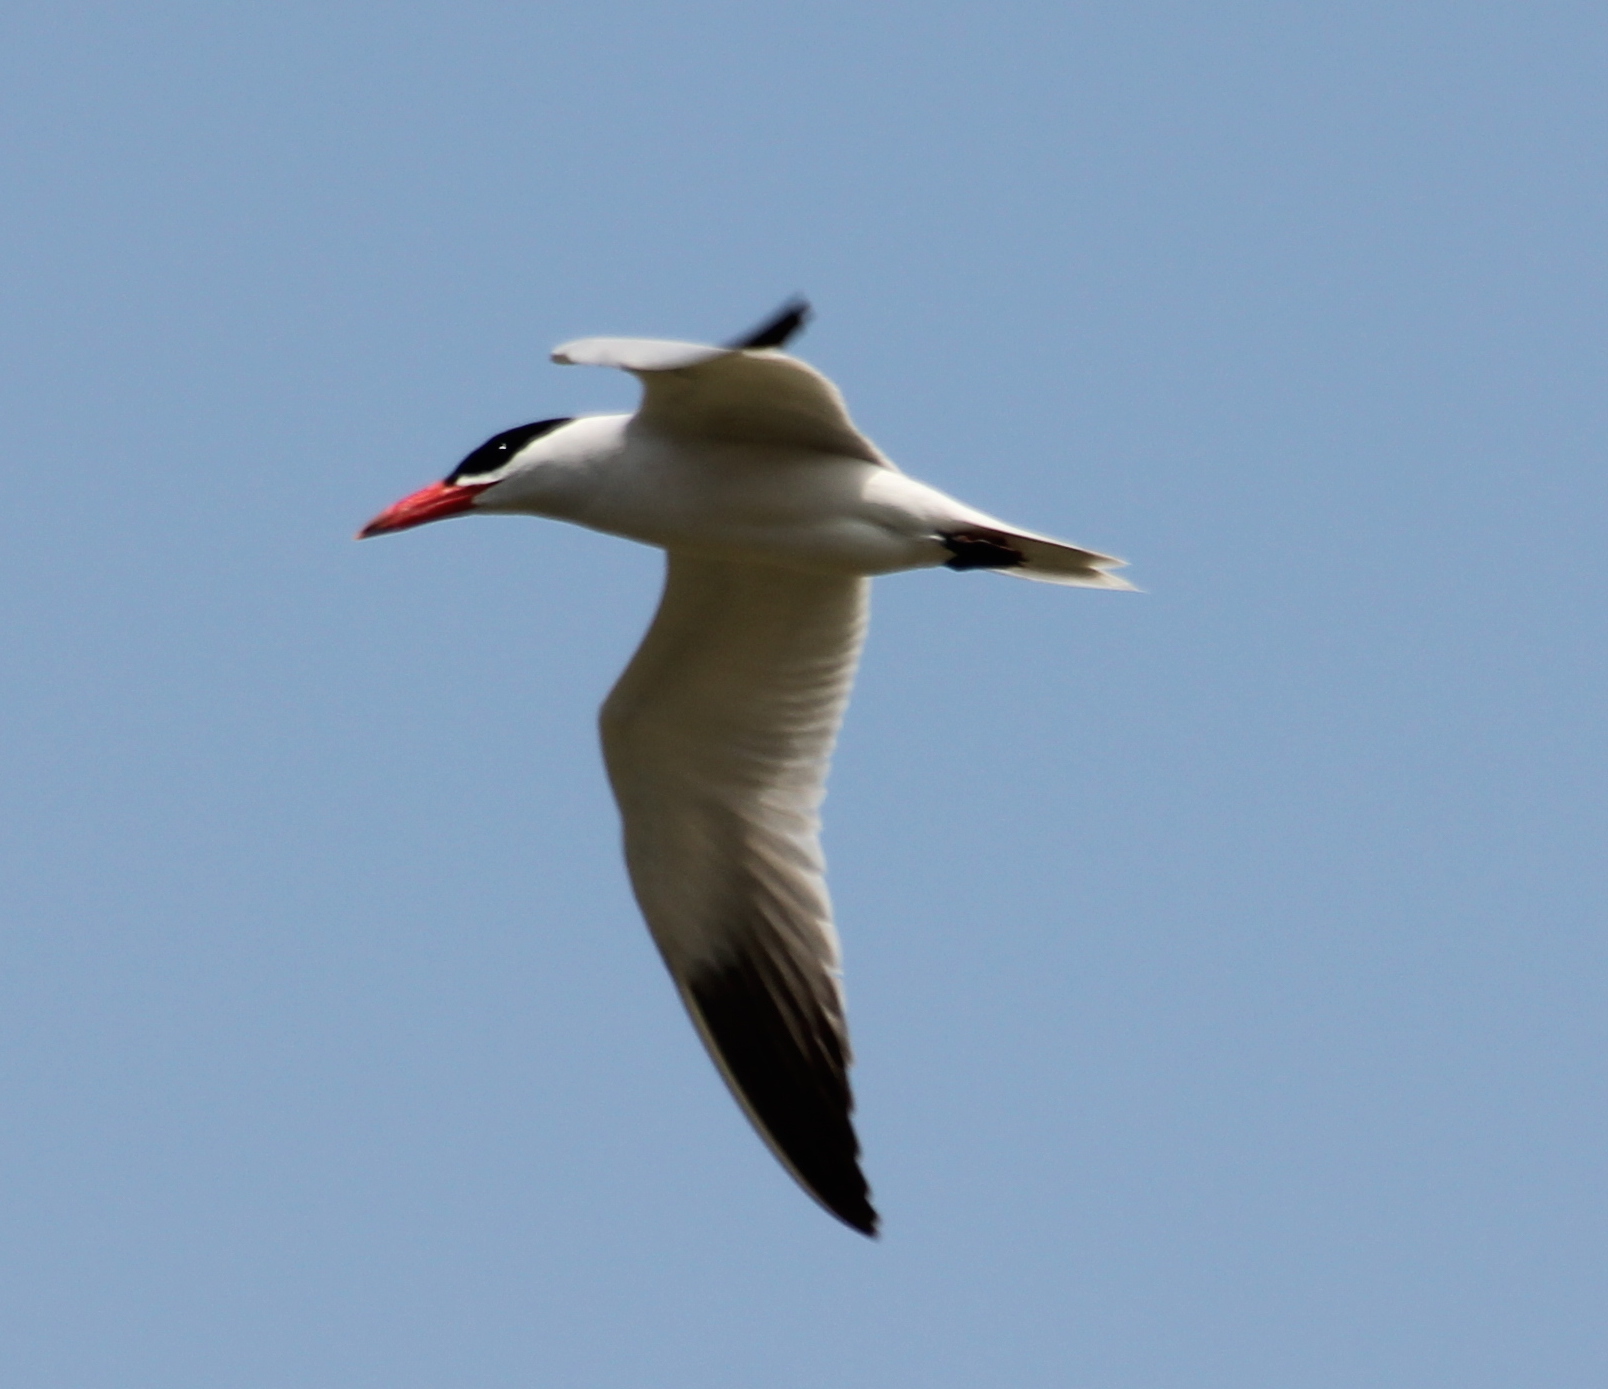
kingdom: Animalia
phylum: Chordata
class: Aves
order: Charadriiformes
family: Laridae
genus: Hydroprogne
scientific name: Hydroprogne caspia
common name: Caspian tern
